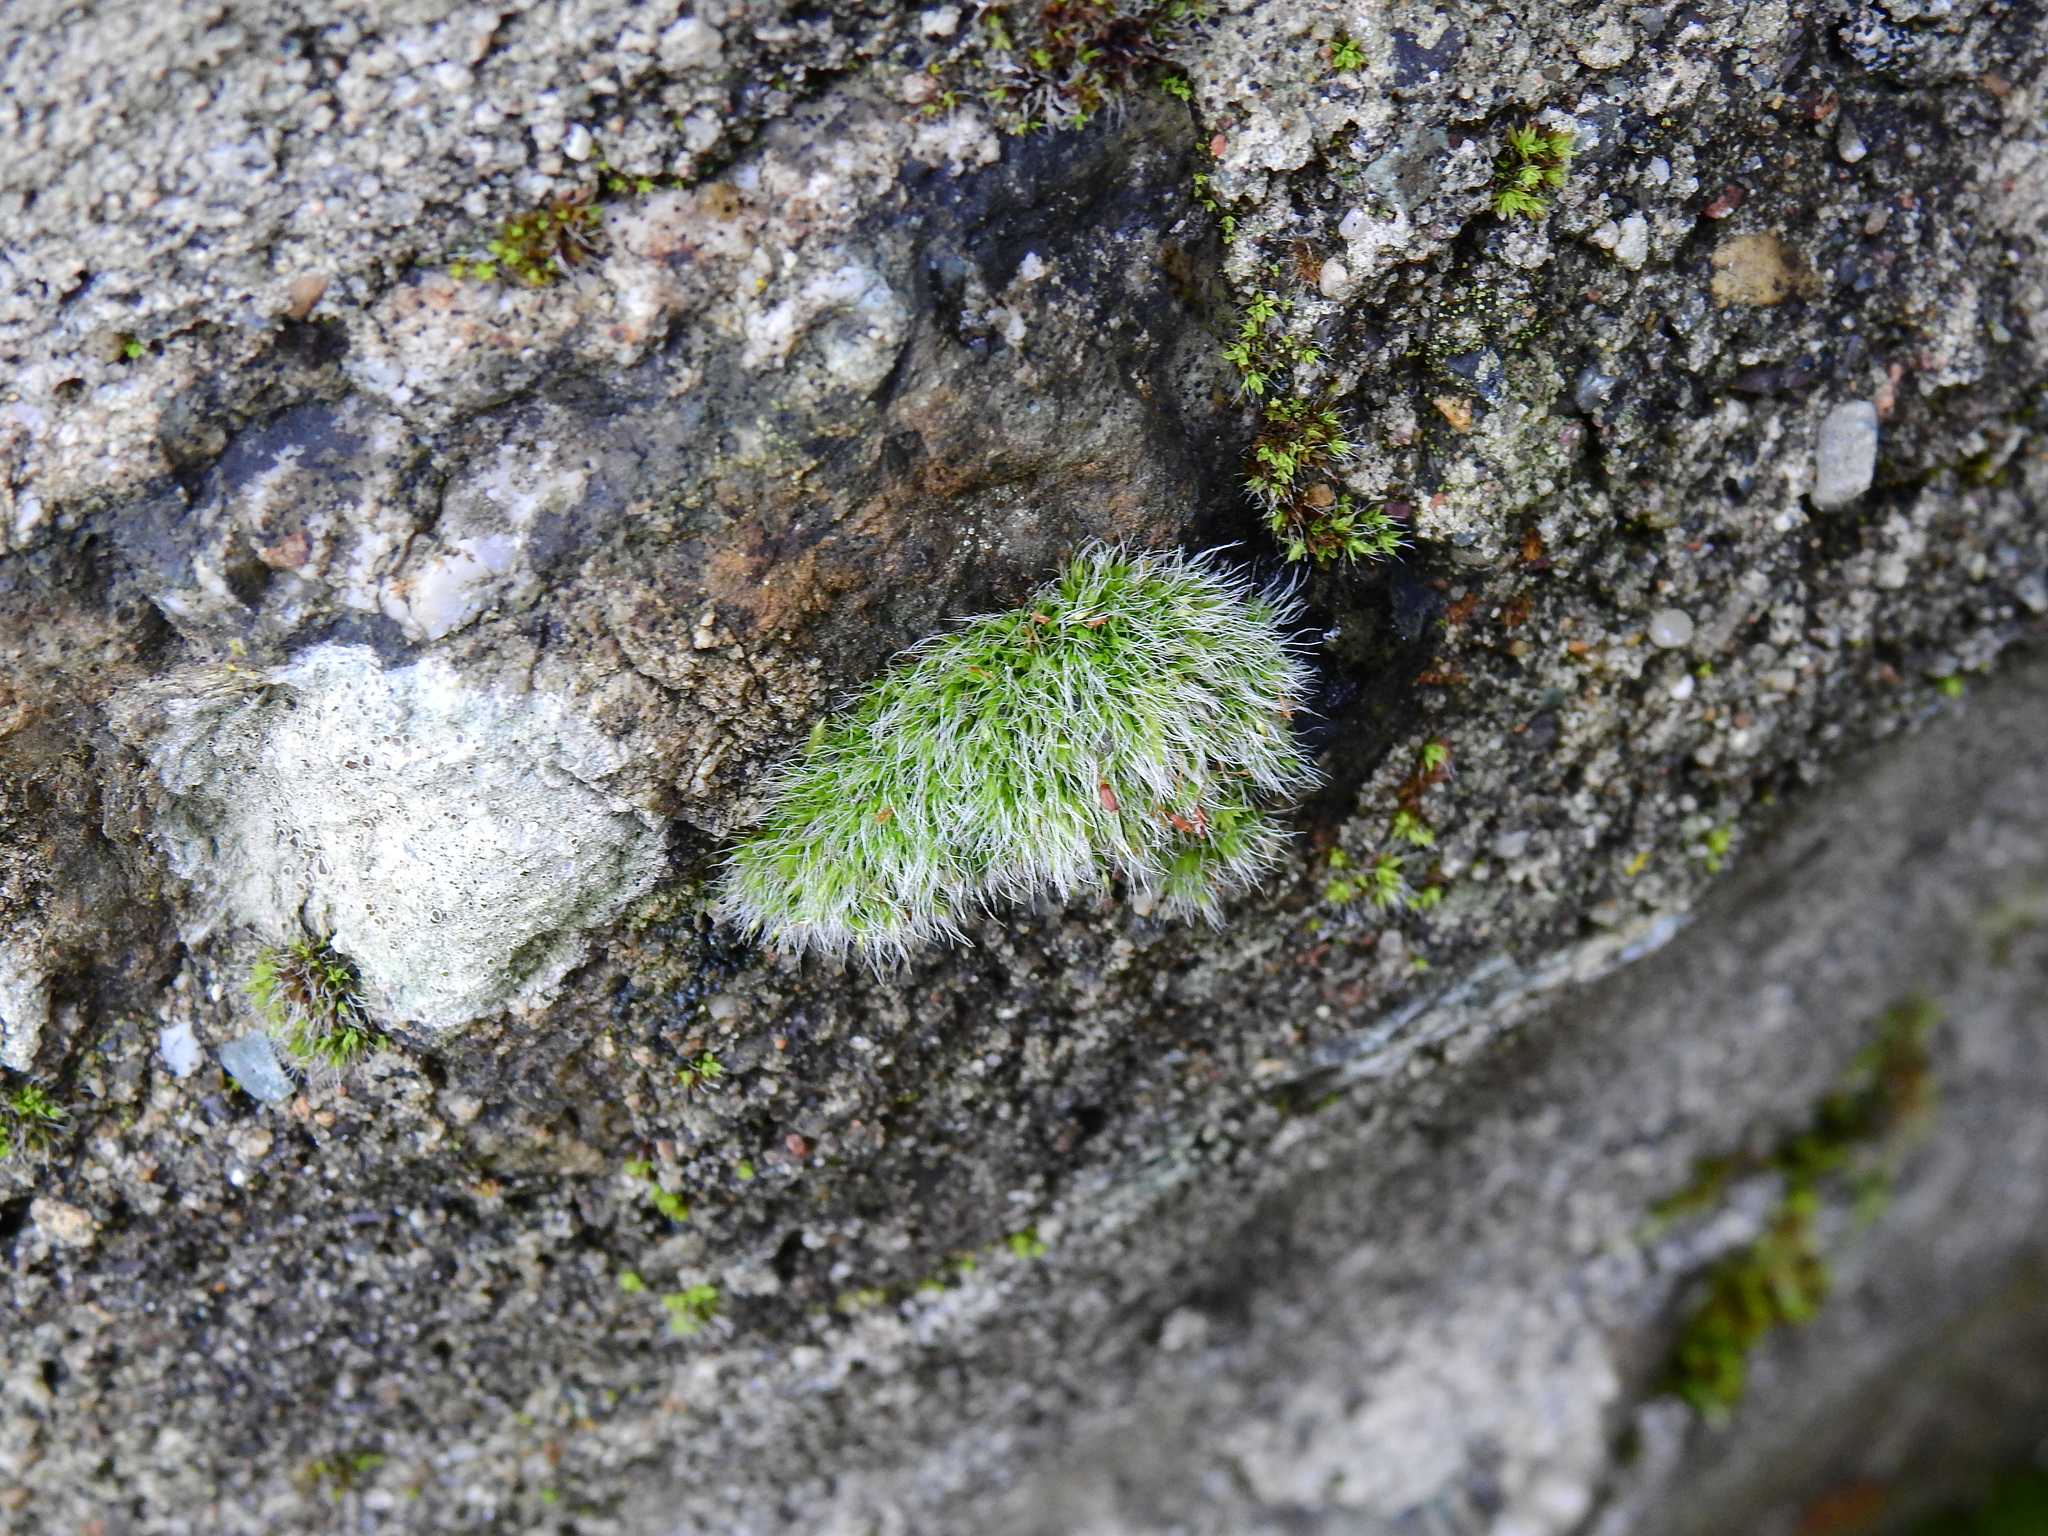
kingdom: Plantae
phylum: Bryophyta
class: Bryopsida
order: Grimmiales
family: Grimmiaceae
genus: Grimmia
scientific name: Grimmia pulvinata
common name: Grey-cushioned grimmia
